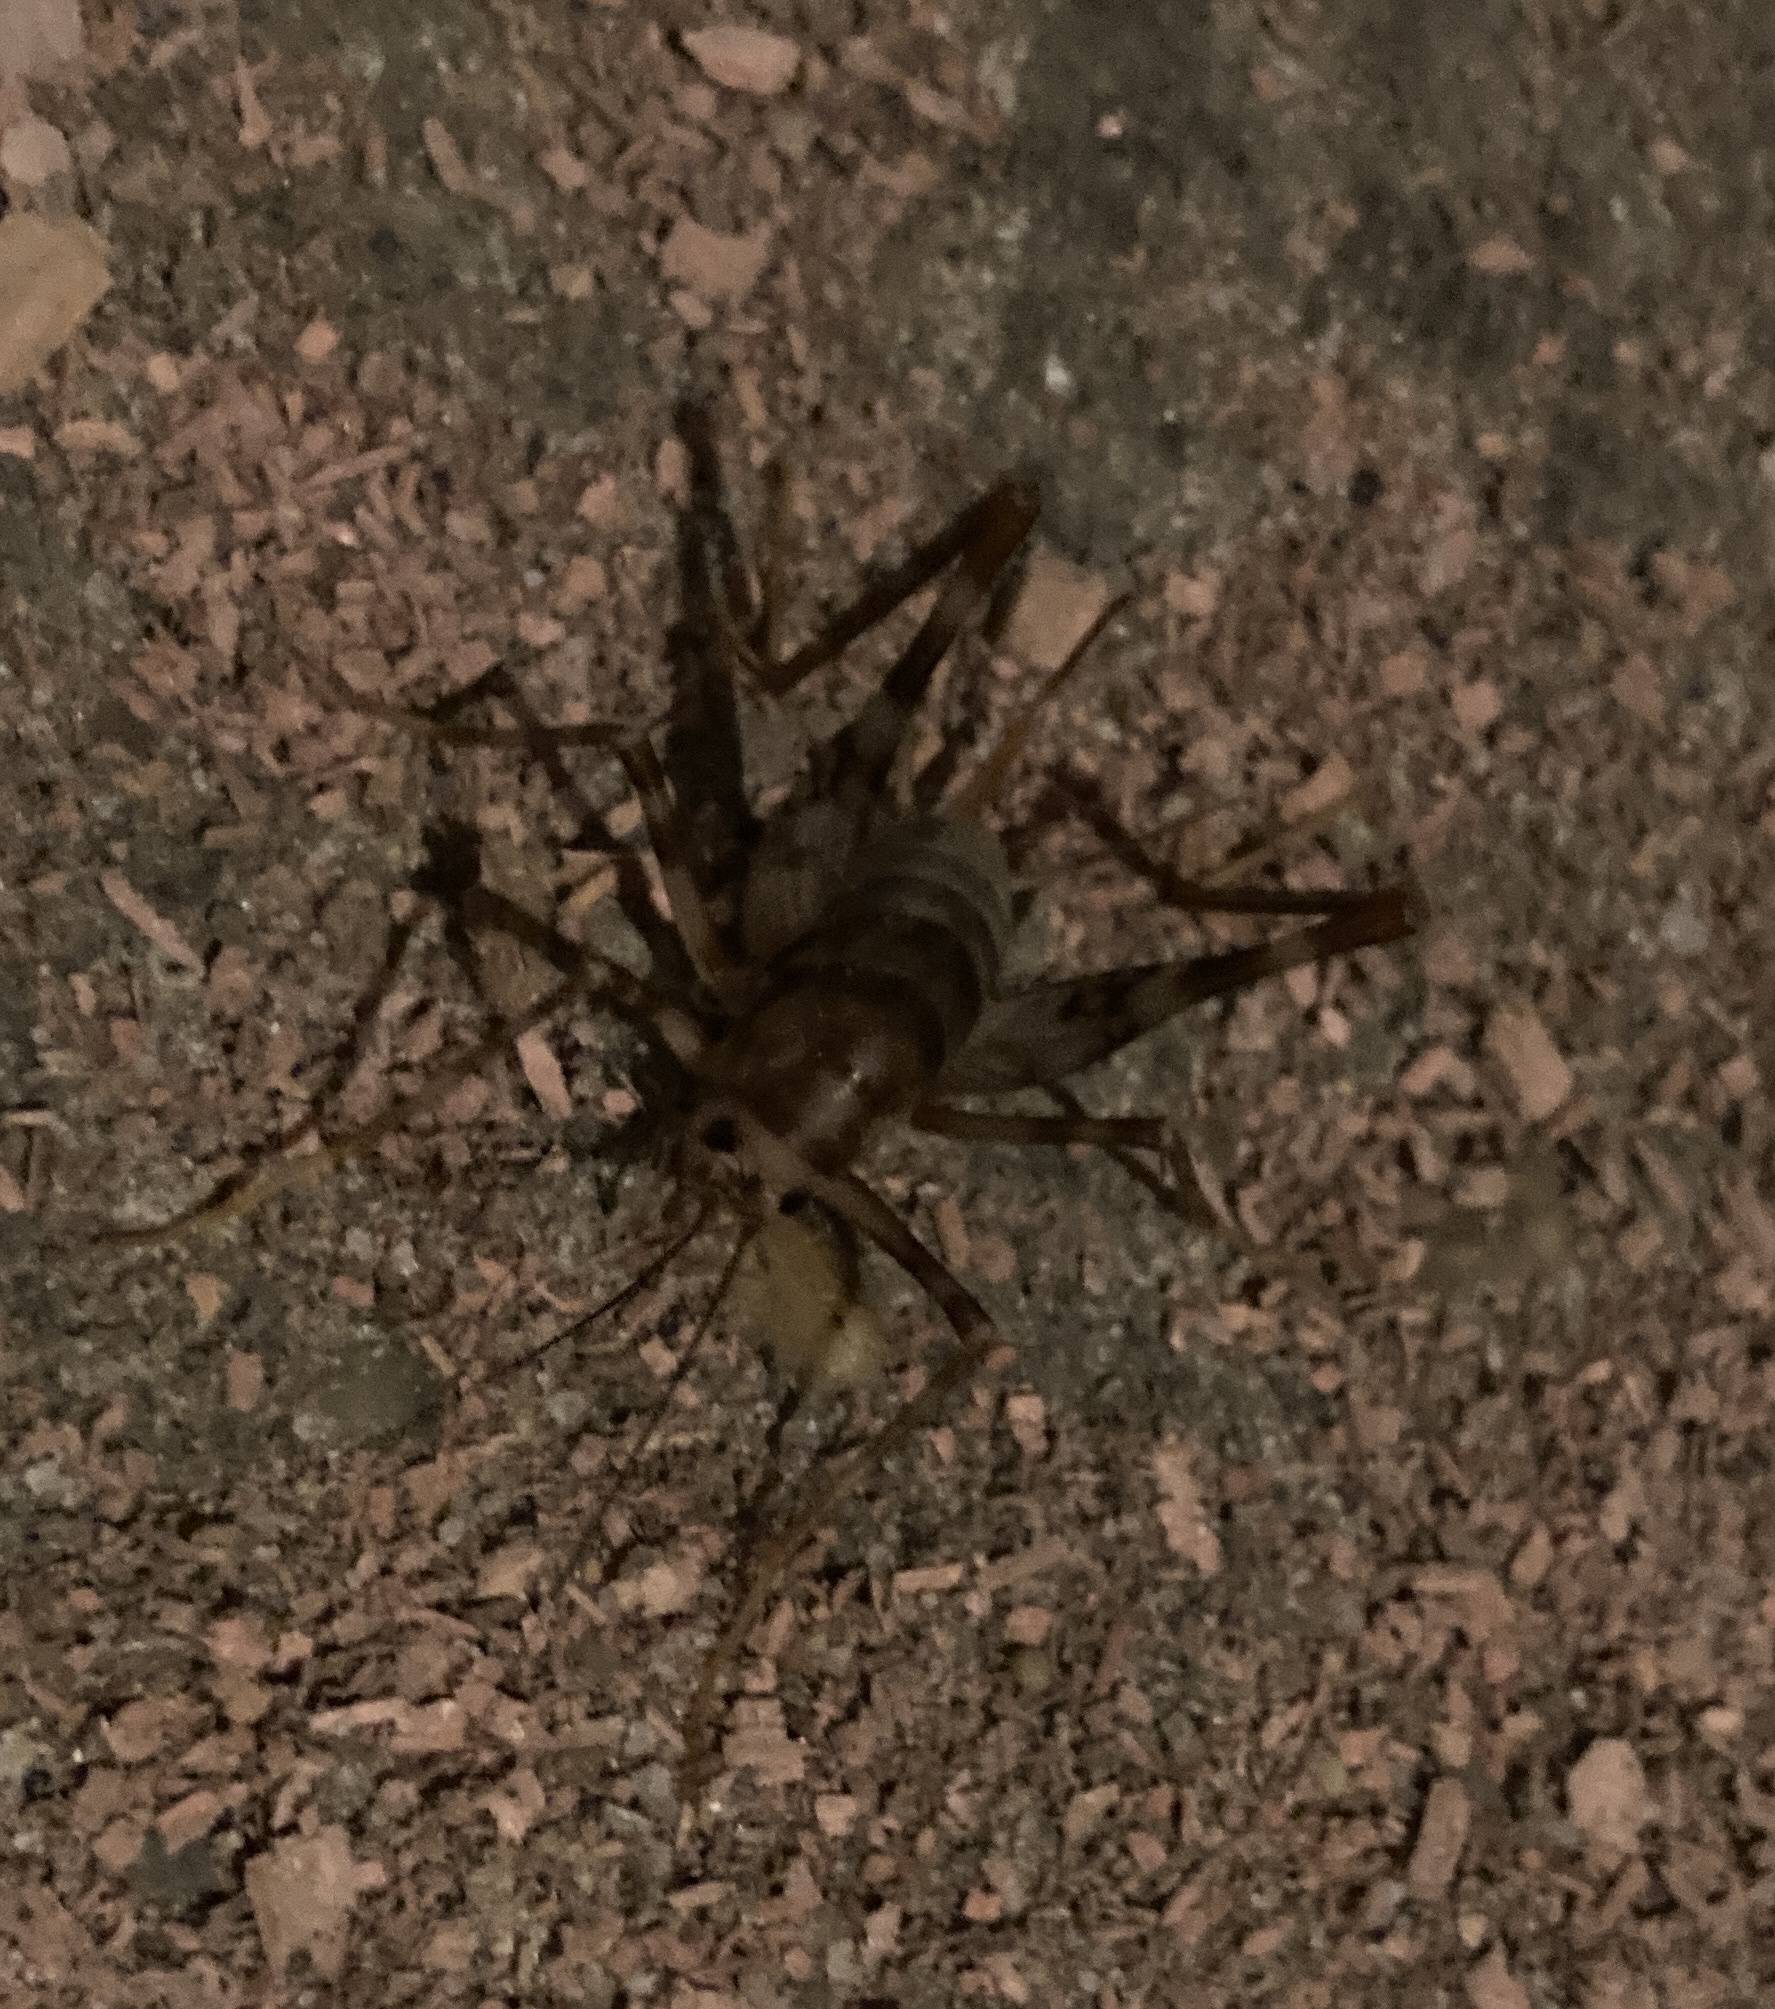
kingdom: Animalia
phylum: Arthropoda
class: Insecta
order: Orthoptera
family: Rhaphidophoridae
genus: Tachycines
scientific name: Tachycines asynamorus
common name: Greenhouse camel cricket
